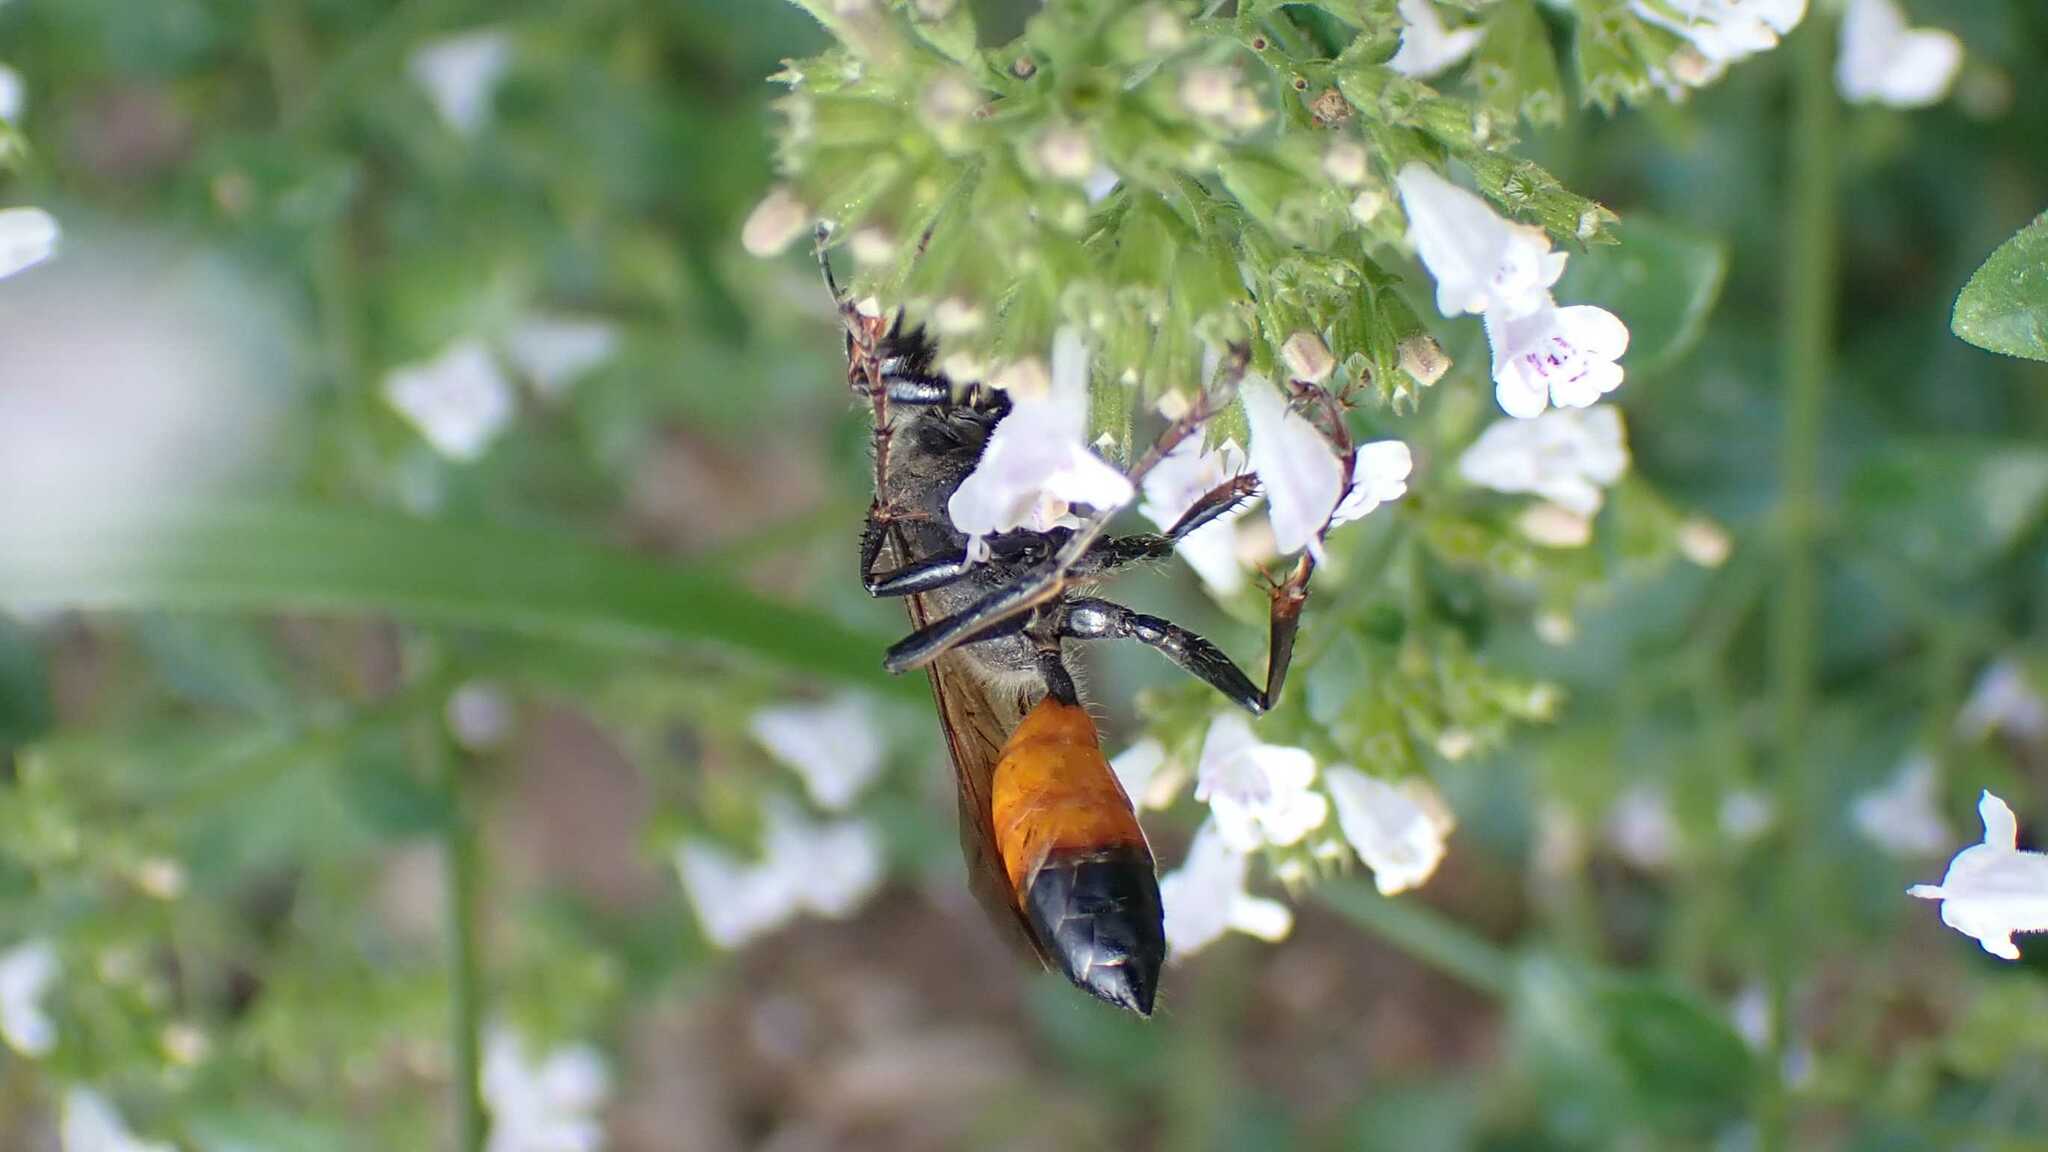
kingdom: Animalia
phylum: Arthropoda
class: Insecta
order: Hymenoptera
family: Sphecidae
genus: Sphex
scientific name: Sphex funerarius
